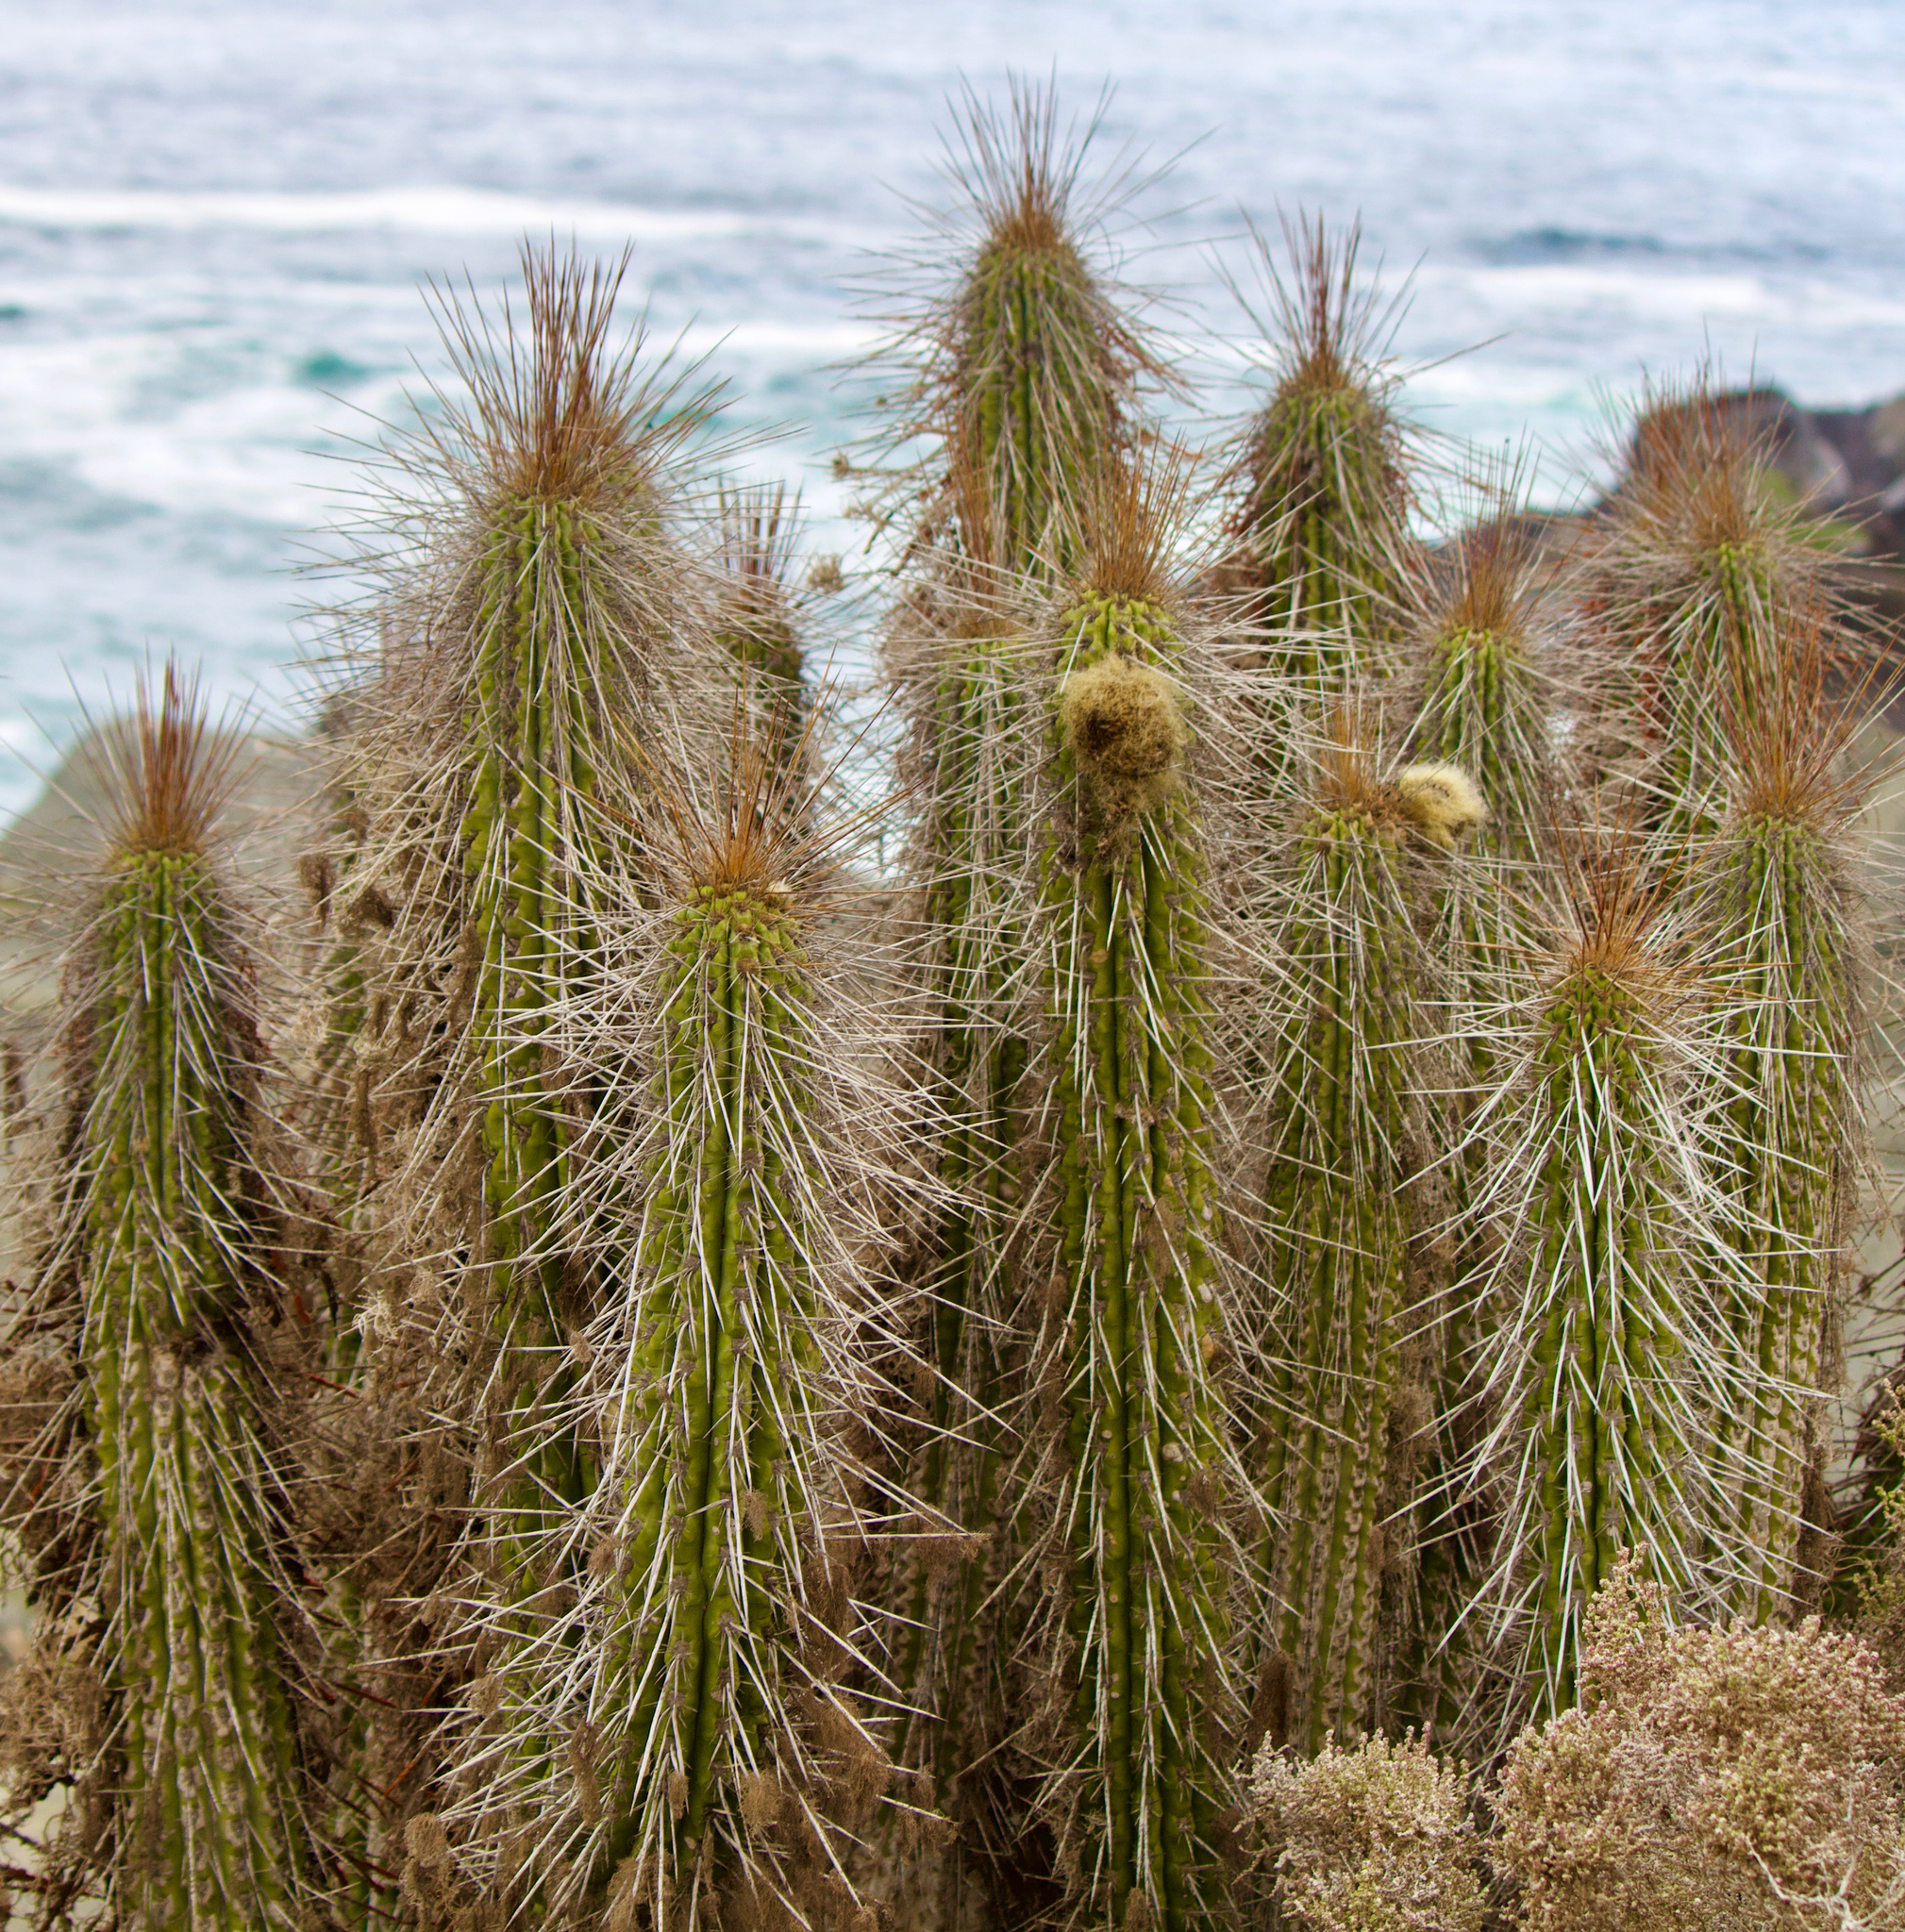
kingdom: Plantae
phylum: Tracheophyta
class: Magnoliopsida
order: Caryophyllales
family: Cactaceae
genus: Eulychnia
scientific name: Eulychnia breviflora
